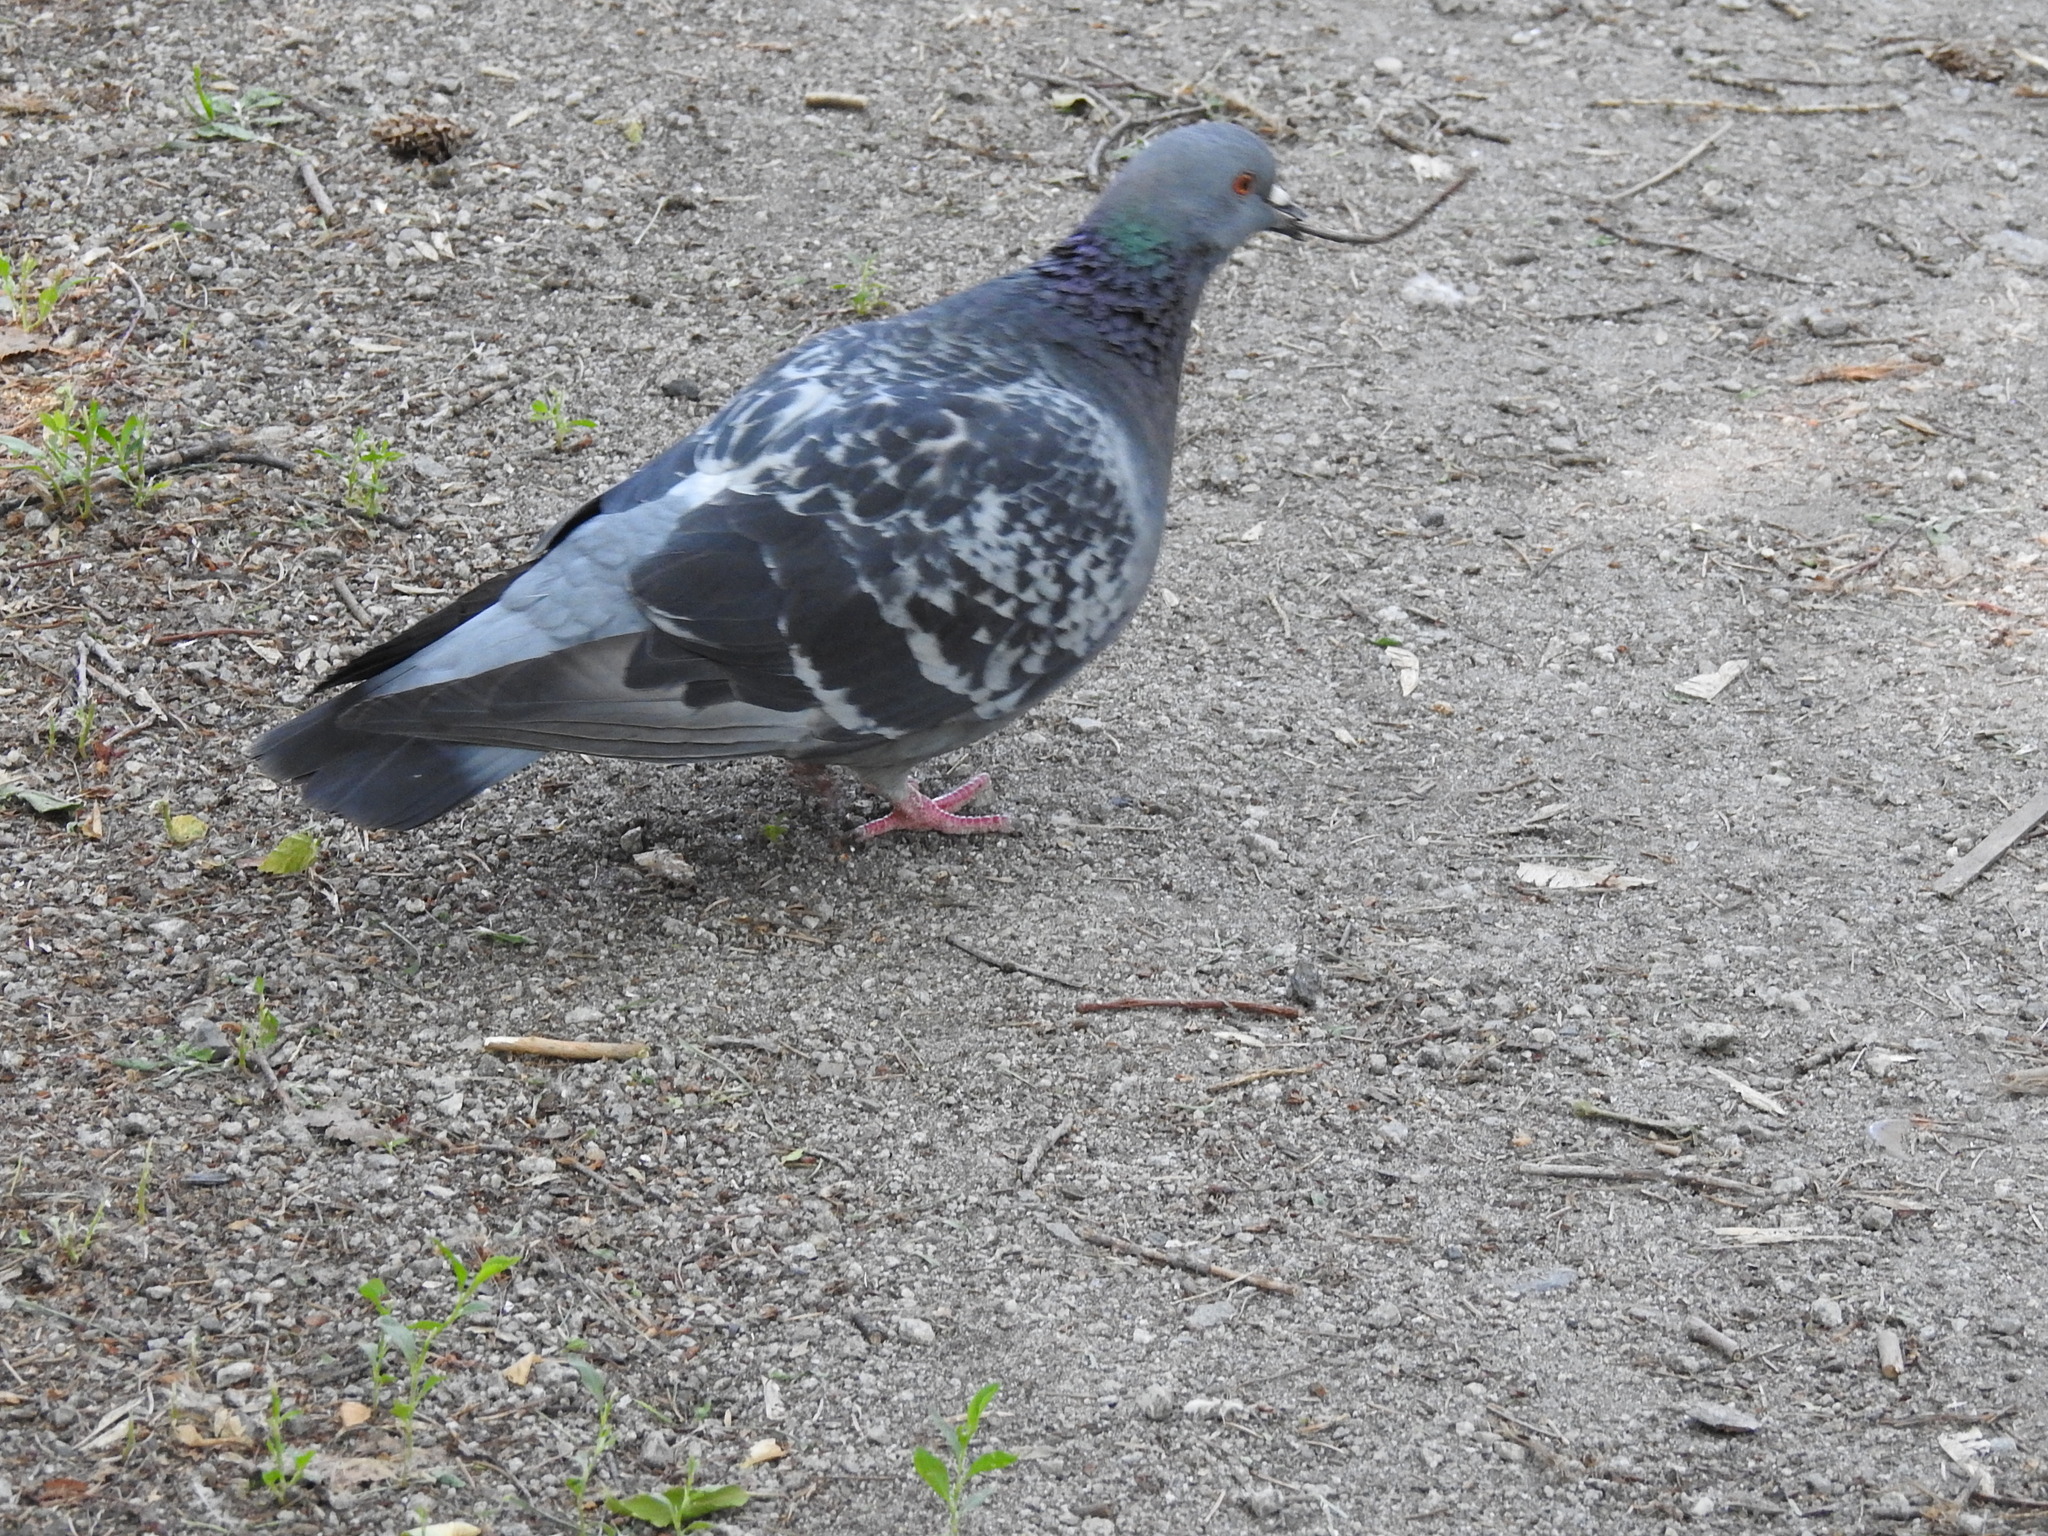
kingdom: Animalia
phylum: Chordata
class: Aves
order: Columbiformes
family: Columbidae
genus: Columba
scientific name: Columba livia
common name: Rock pigeon
